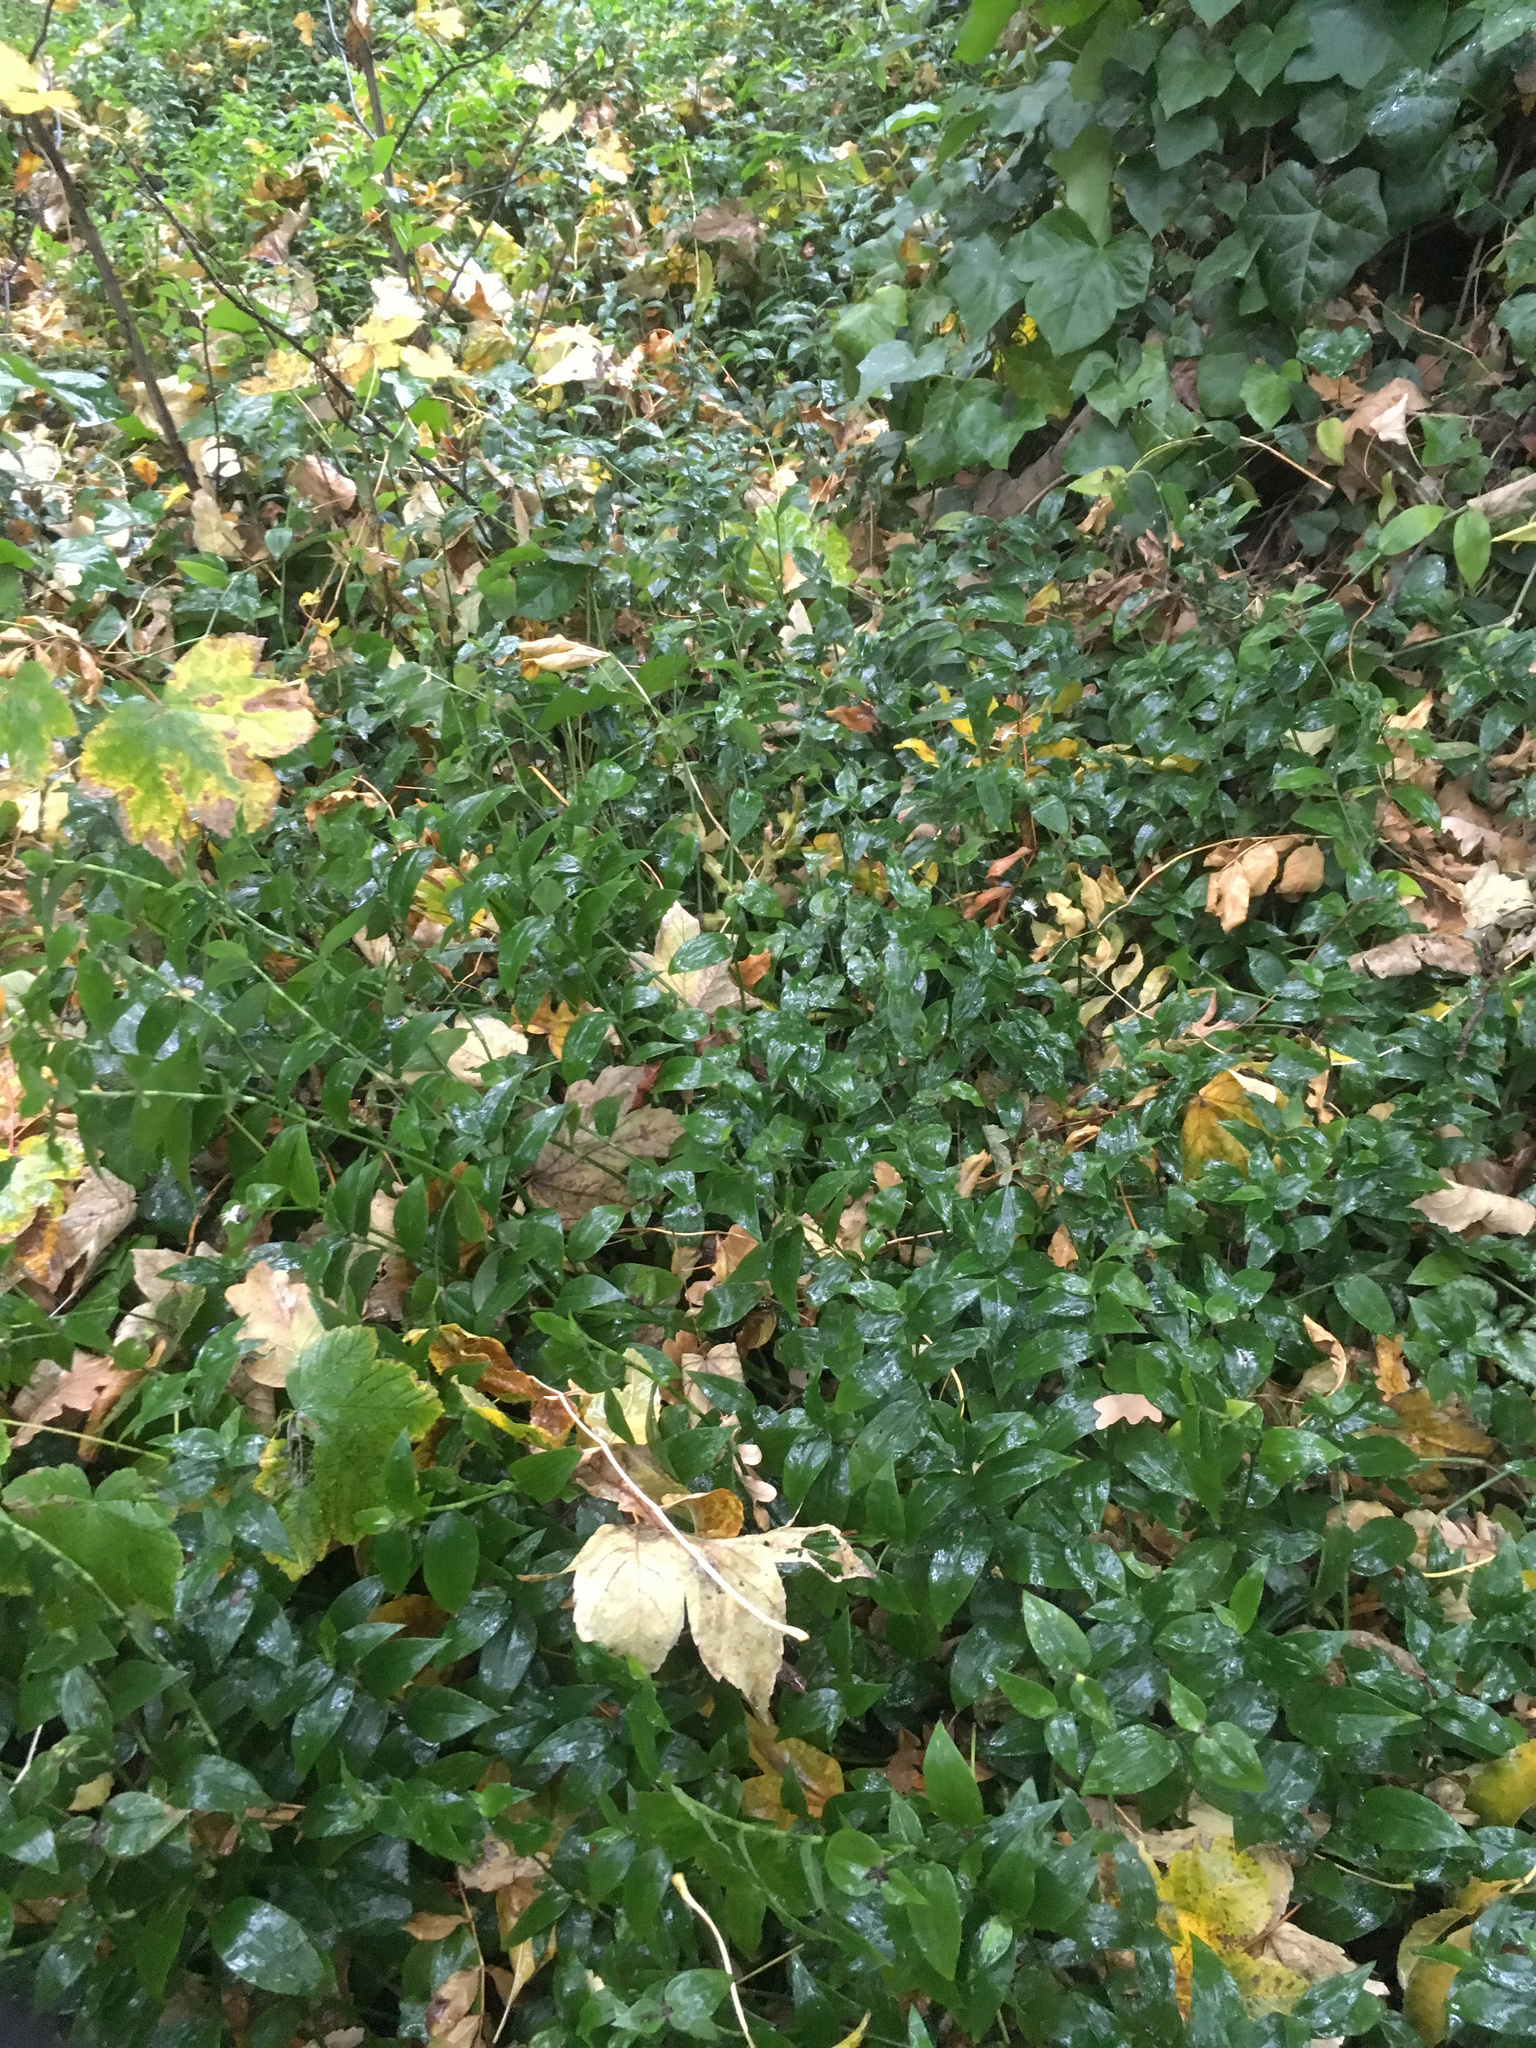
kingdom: Plantae
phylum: Tracheophyta
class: Liliopsida
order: Commelinales
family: Commelinaceae
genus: Tradescantia
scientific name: Tradescantia fluminensis
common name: Wandering-jew
